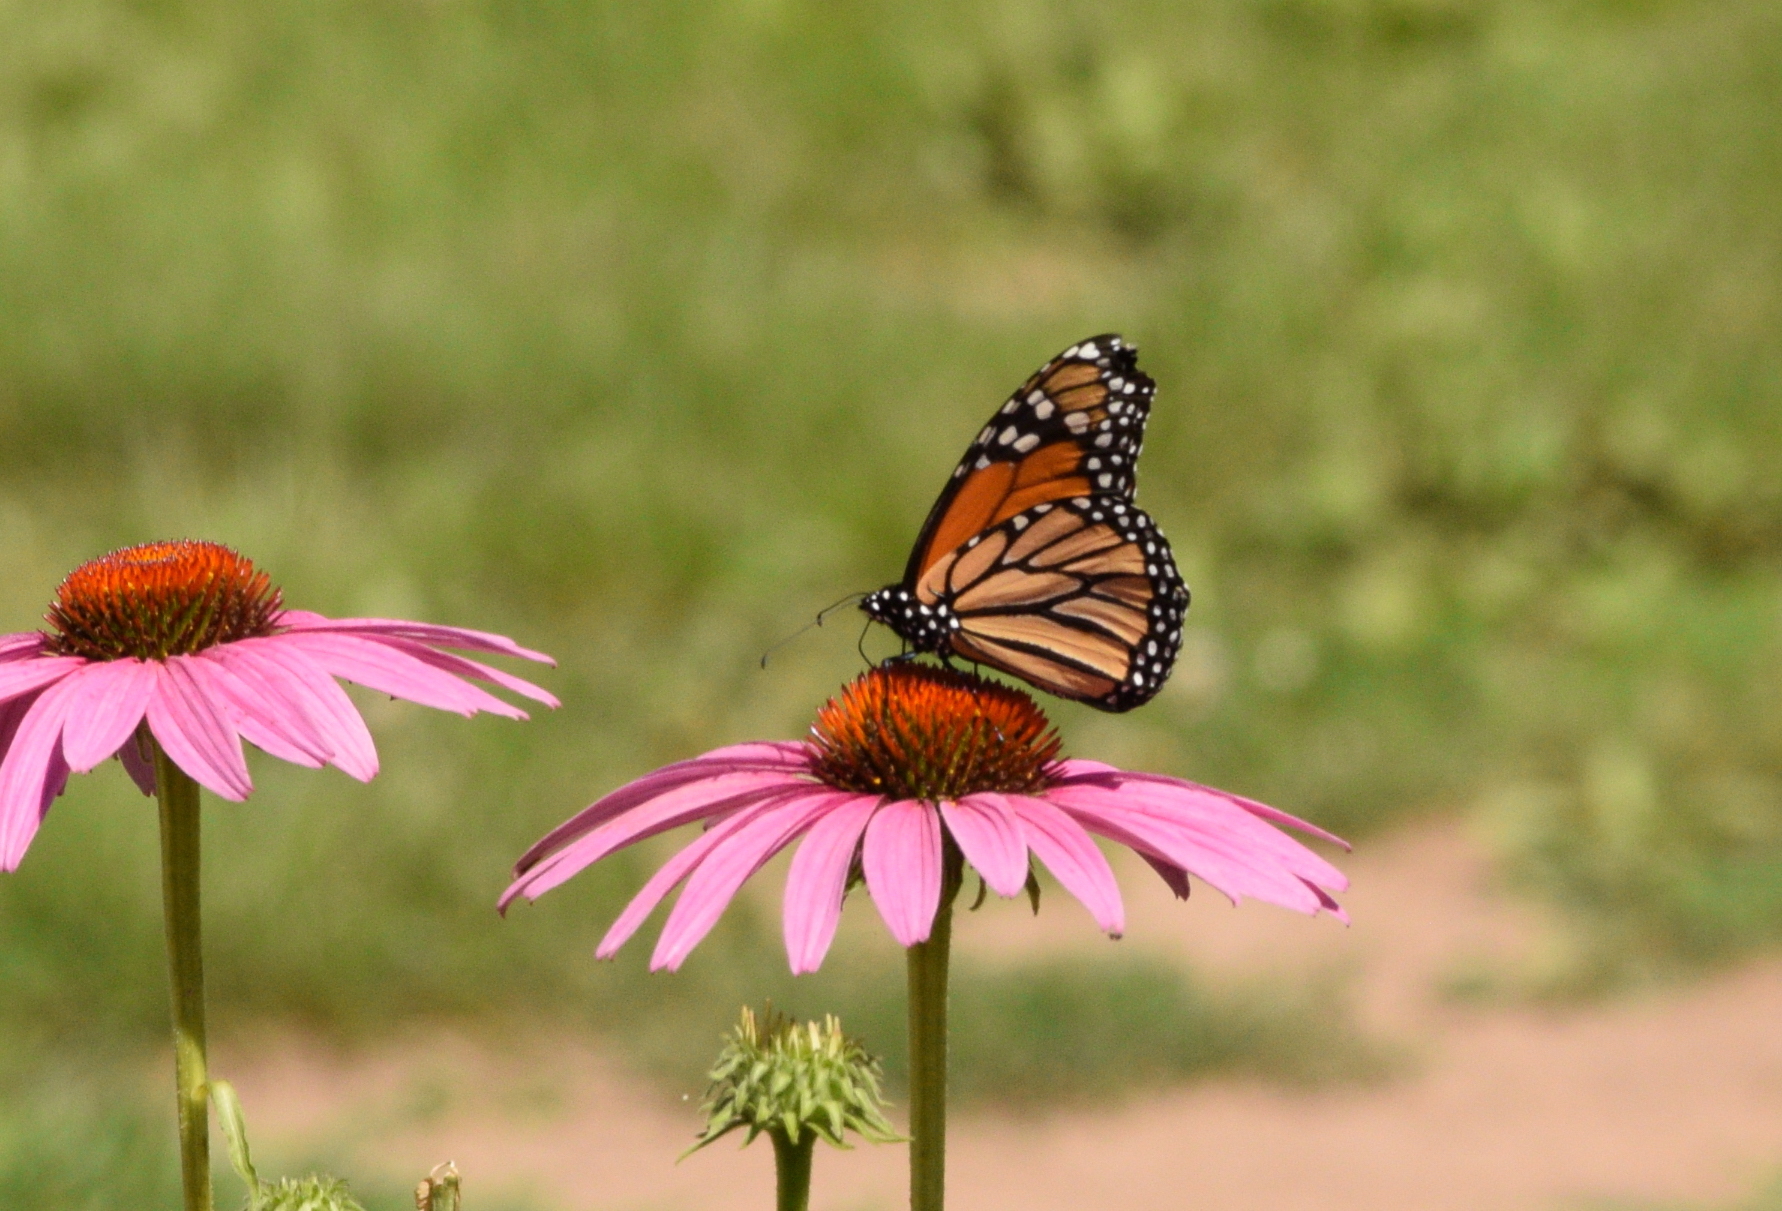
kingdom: Animalia
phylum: Arthropoda
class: Insecta
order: Lepidoptera
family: Nymphalidae
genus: Danaus
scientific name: Danaus plexippus
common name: Monarch
